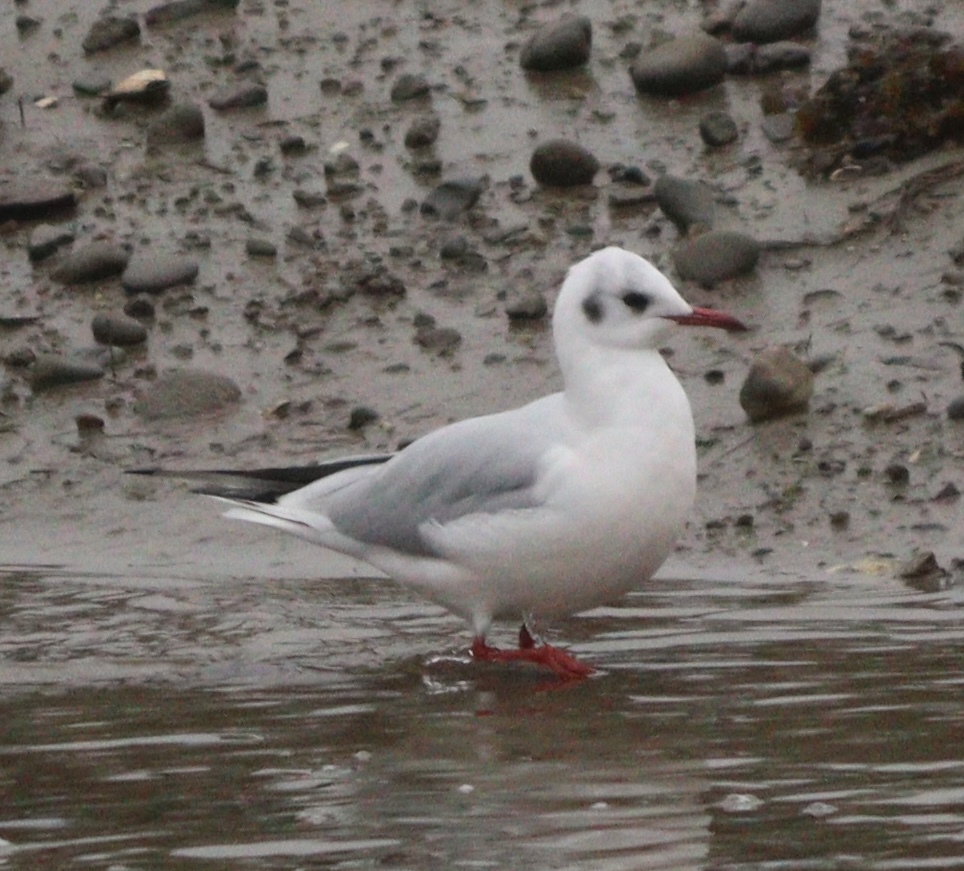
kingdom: Animalia
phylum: Chordata
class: Aves
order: Charadriiformes
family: Laridae
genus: Chroicocephalus
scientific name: Chroicocephalus ridibundus
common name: Black-headed gull
